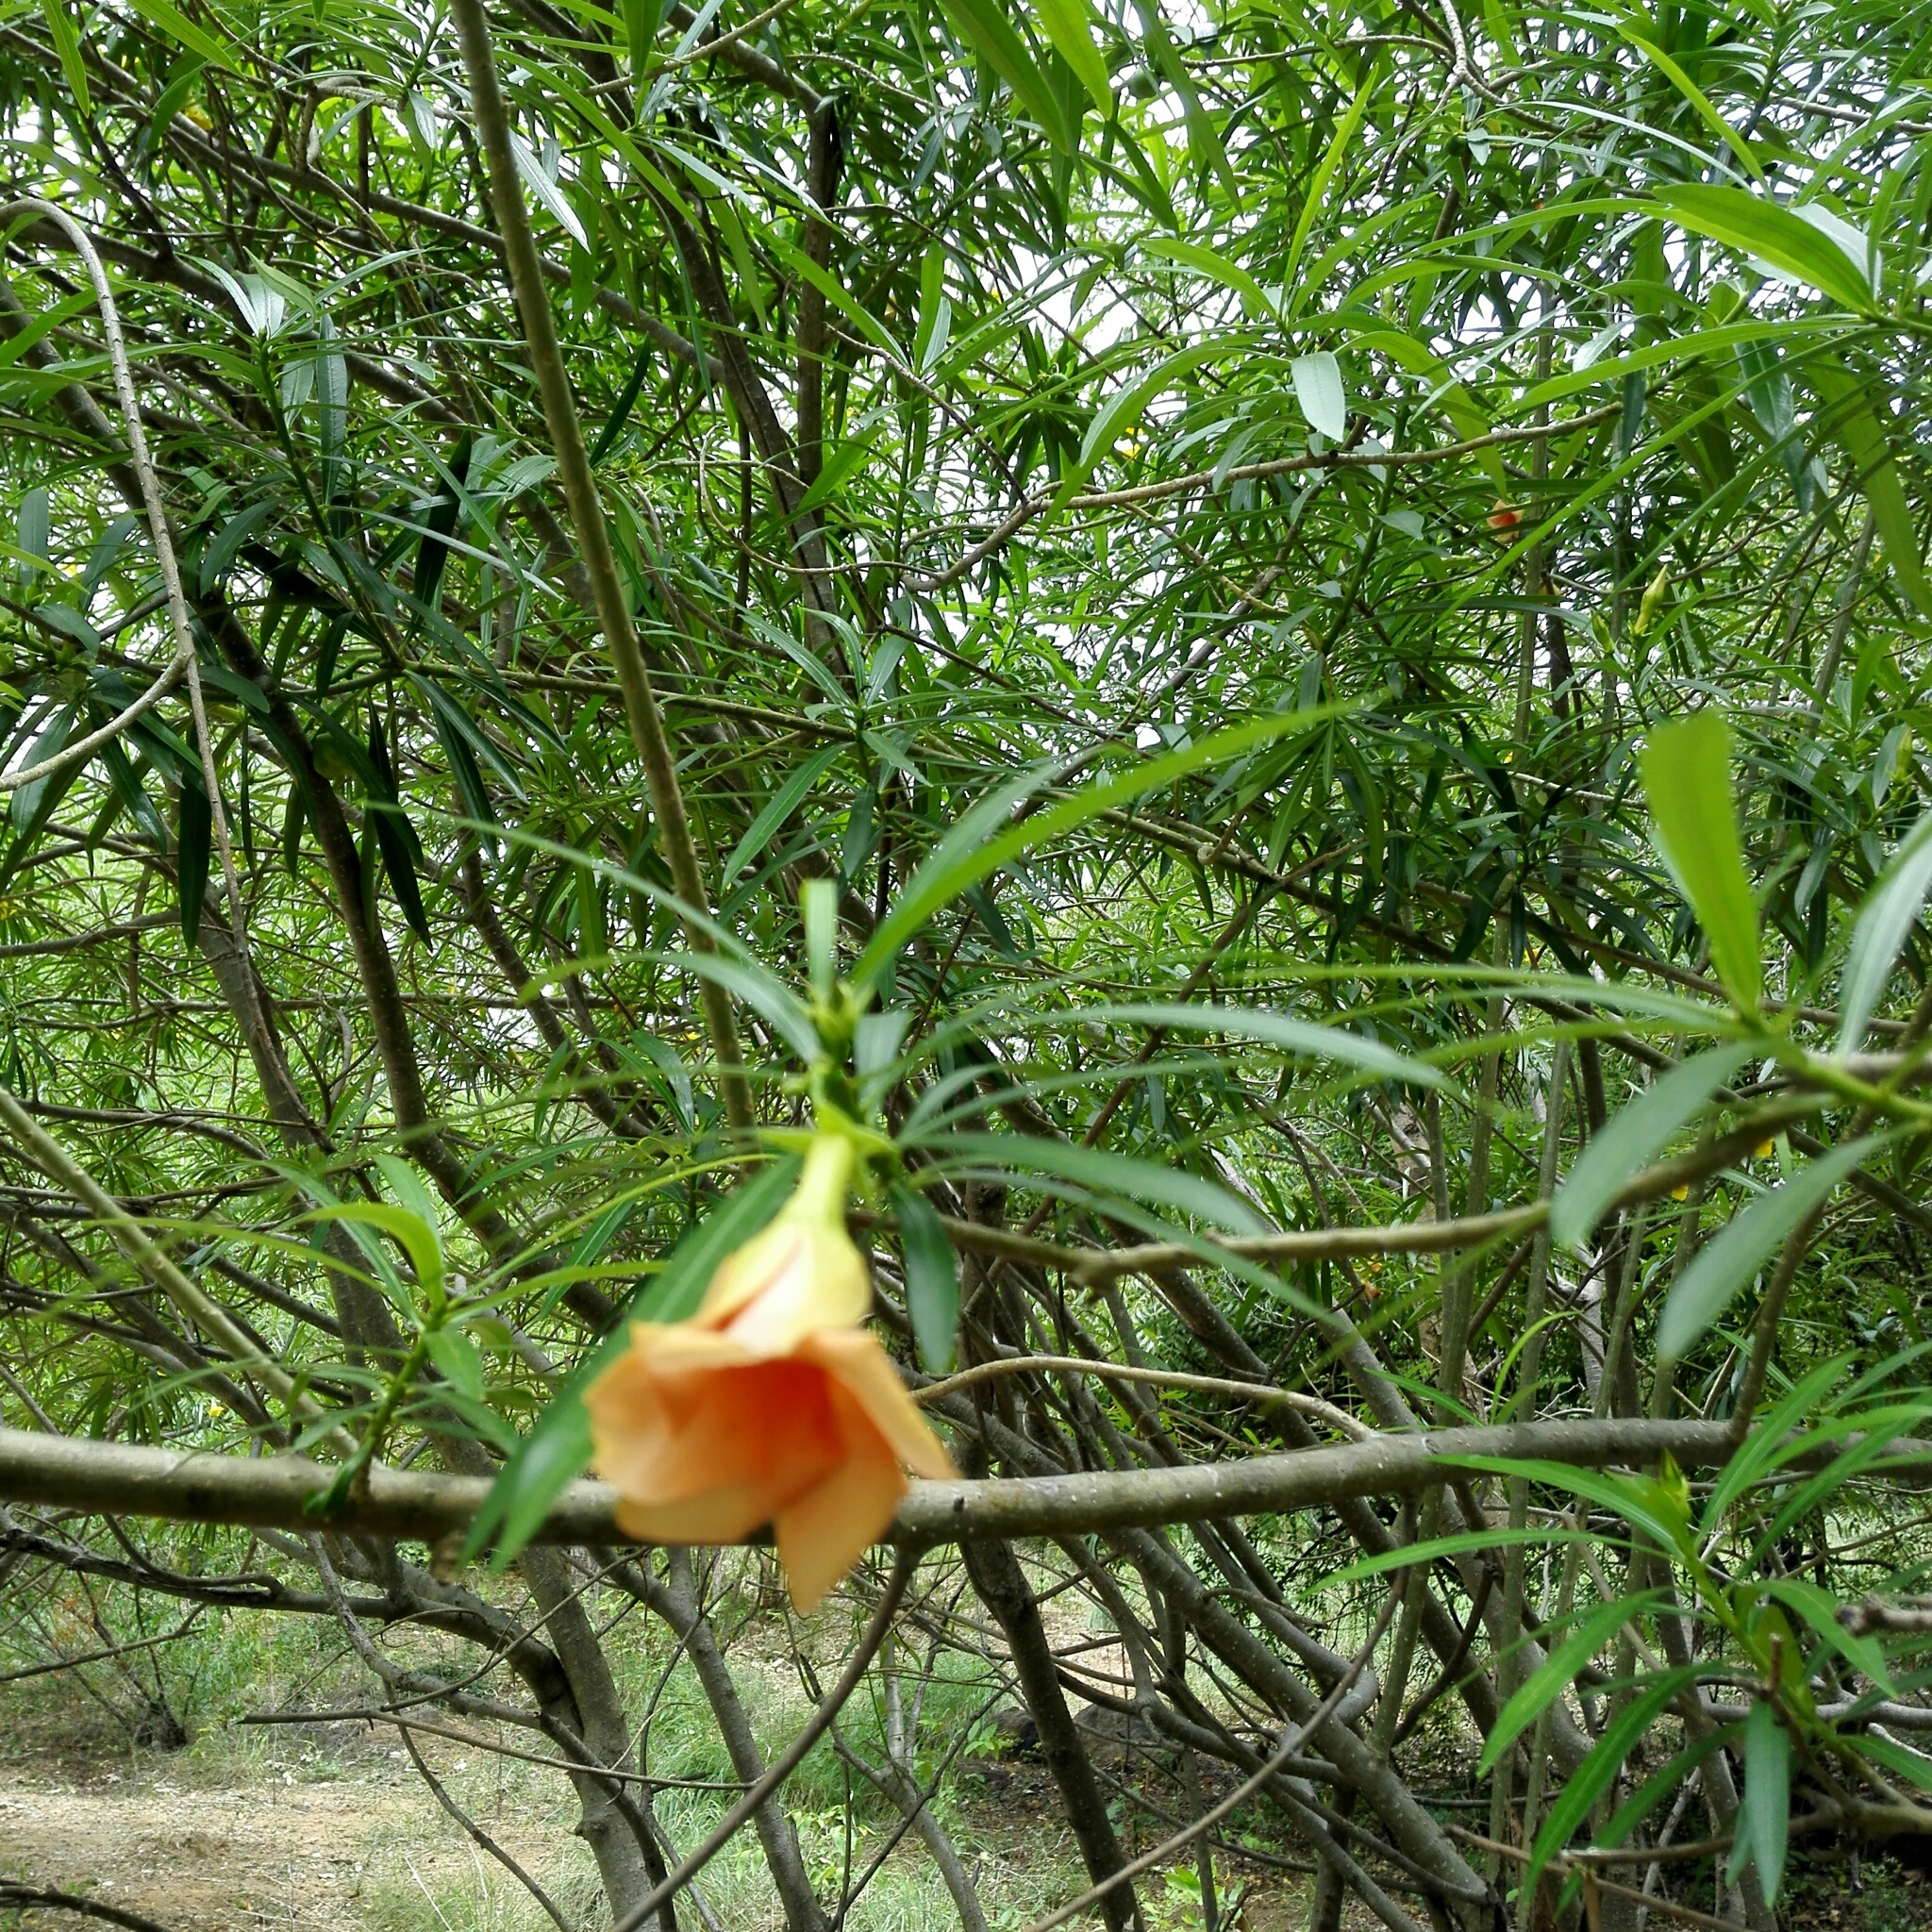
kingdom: Plantae
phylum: Tracheophyta
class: Magnoliopsida
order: Gentianales
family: Apocynaceae
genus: Cascabela
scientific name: Cascabela thevetia
